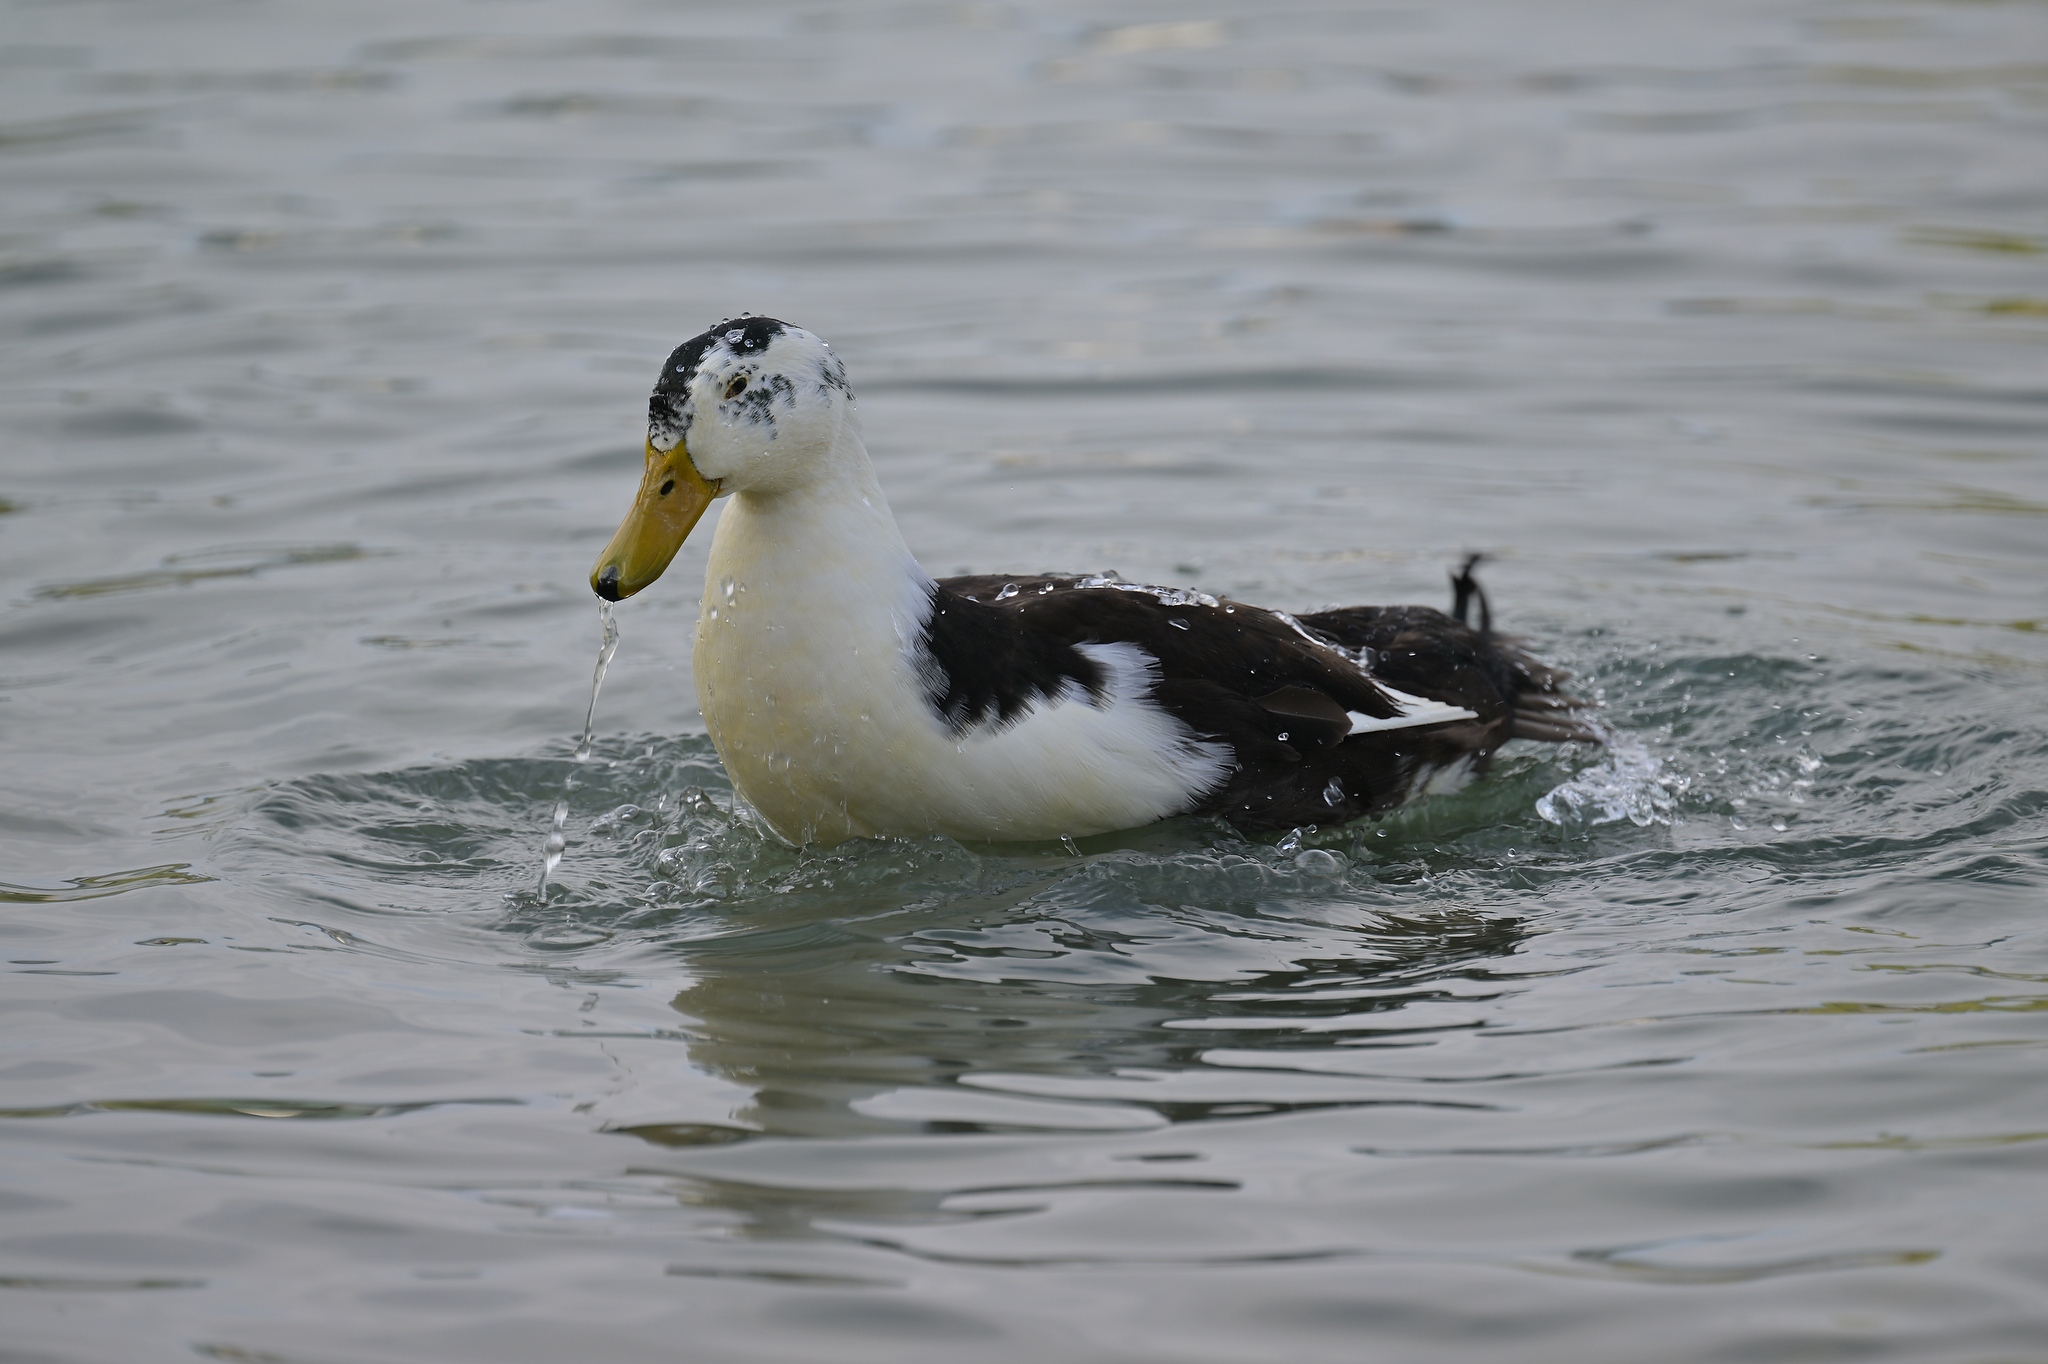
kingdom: Animalia
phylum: Chordata
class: Aves
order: Anseriformes
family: Anatidae
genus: Anas
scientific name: Anas platyrhynchos
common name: Mallard
